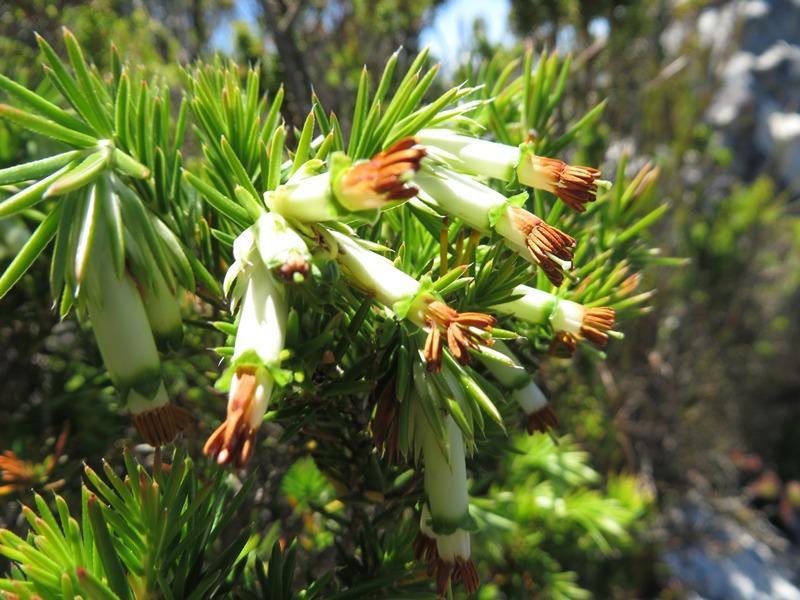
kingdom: Plantae
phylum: Tracheophyta
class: Magnoliopsida
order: Ericales
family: Ericaceae
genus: Erica
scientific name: Erica banksia
